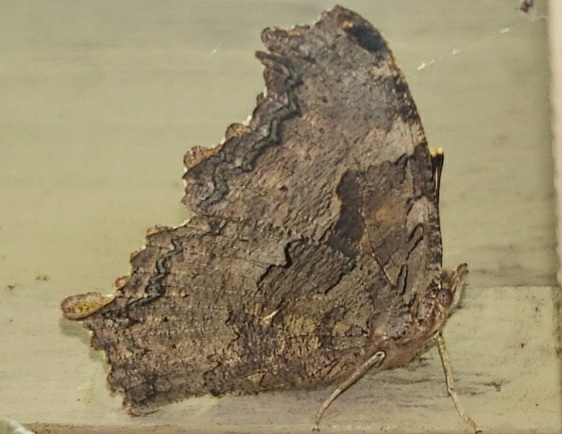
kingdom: Animalia
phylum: Arthropoda
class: Insecta
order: Lepidoptera
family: Nymphalidae
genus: Polygonia
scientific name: Polygonia vaualbum
